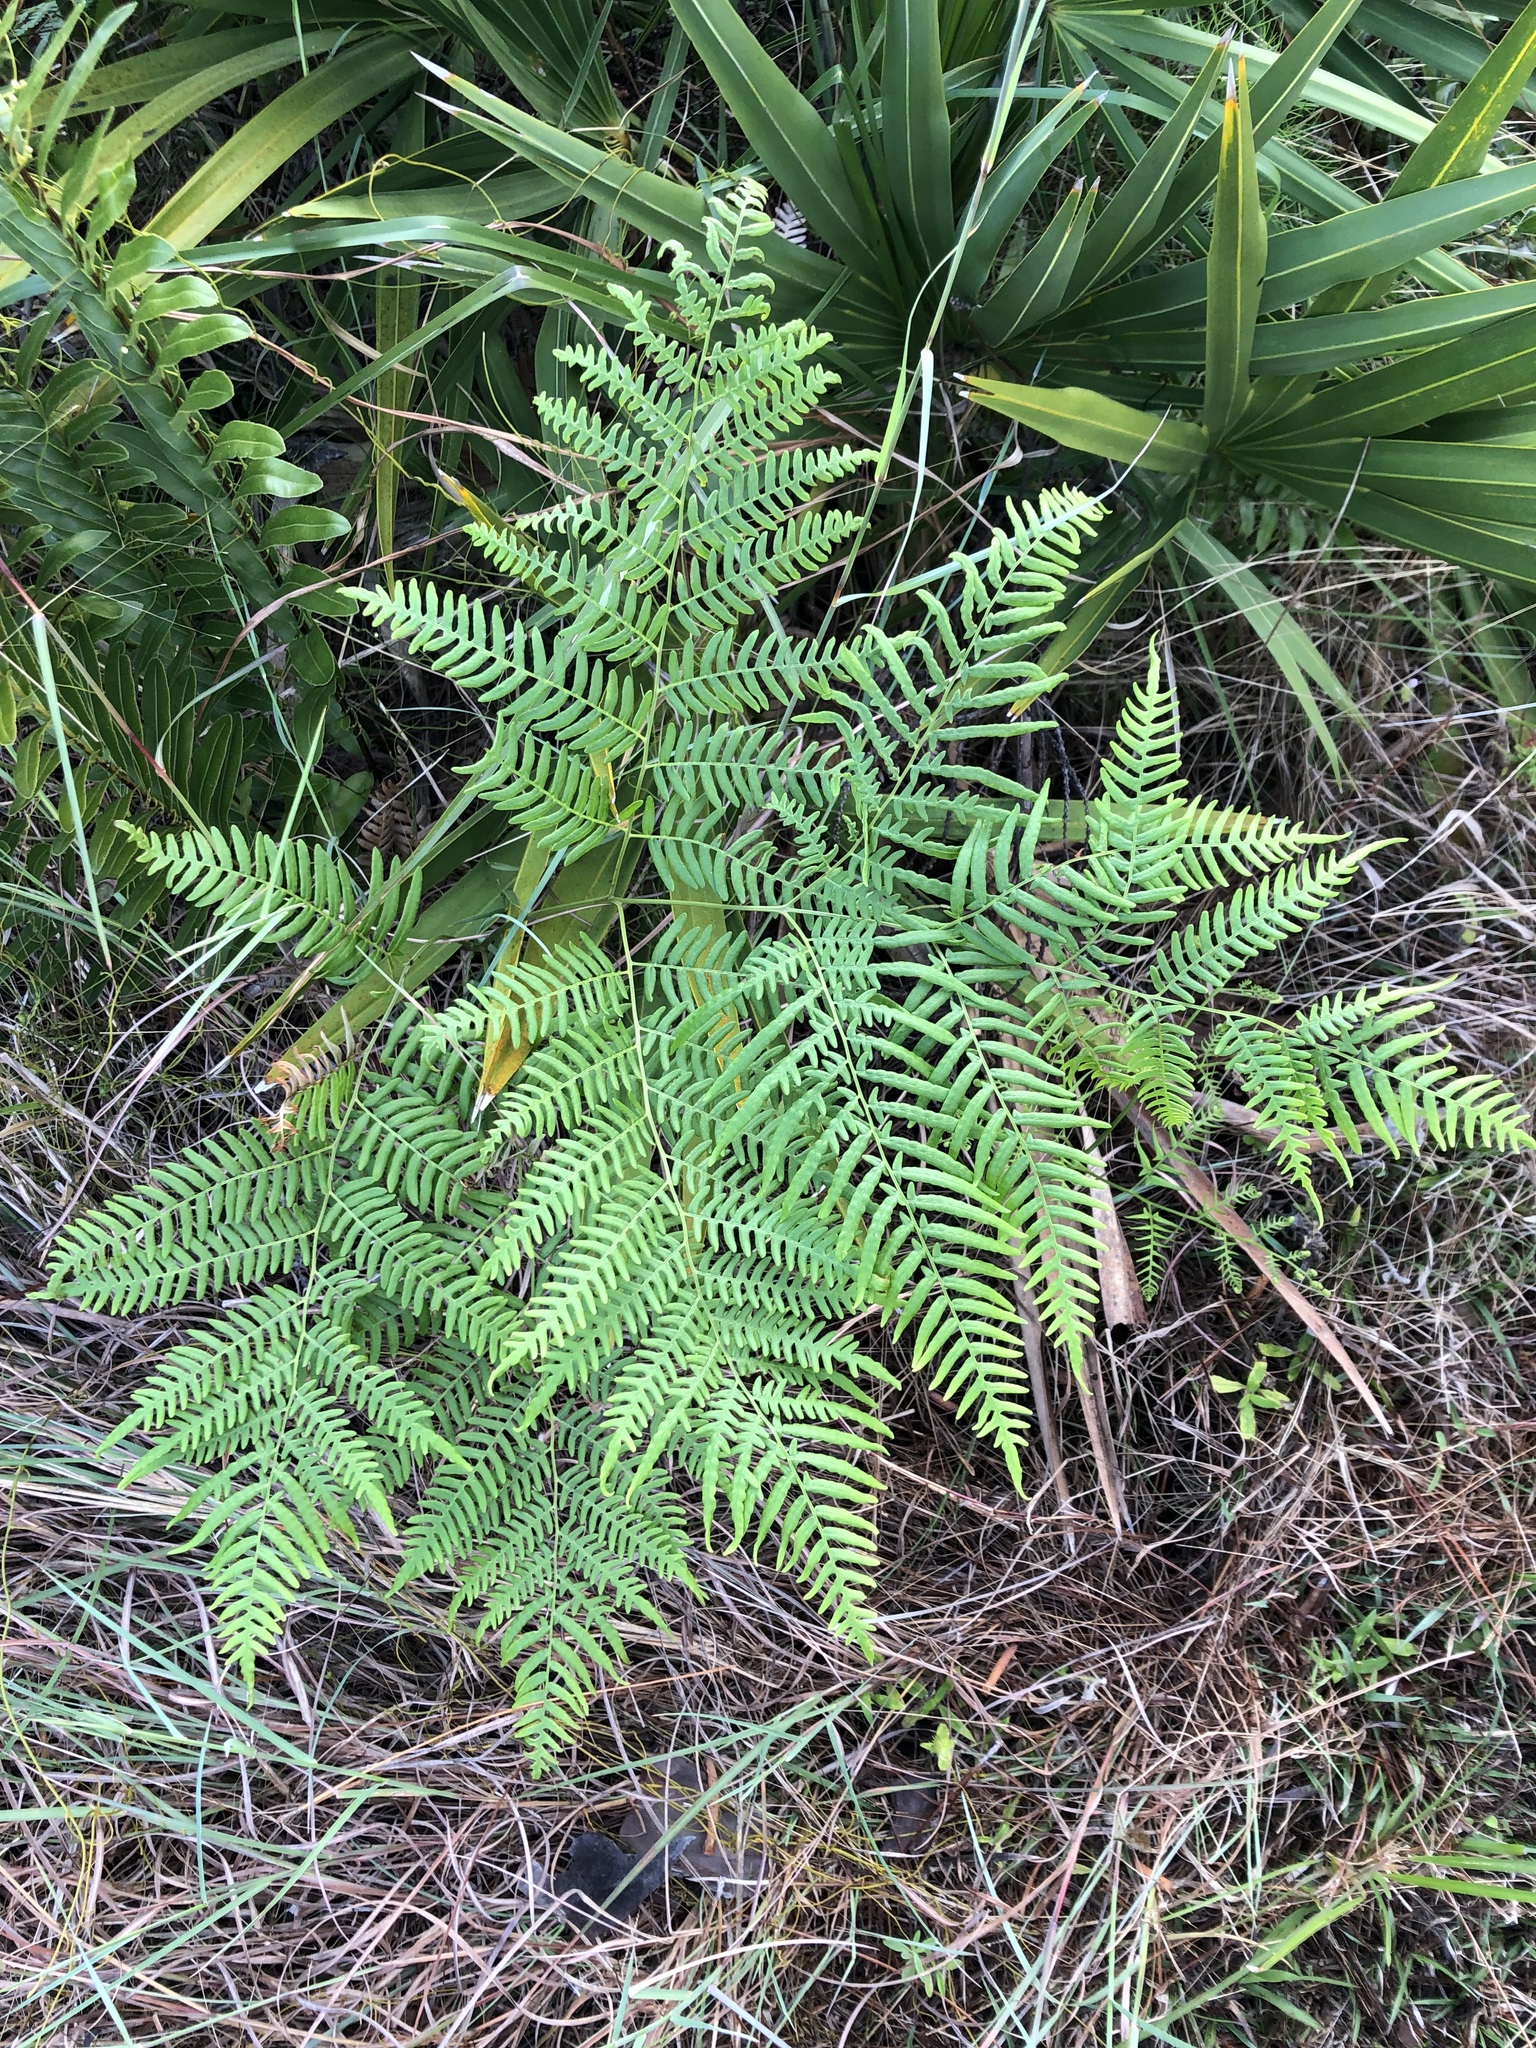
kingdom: Plantae
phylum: Tracheophyta
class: Polypodiopsida
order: Polypodiales
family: Dennstaedtiaceae
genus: Pteridium
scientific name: Pteridium caudatum
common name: Southern bracken fern
